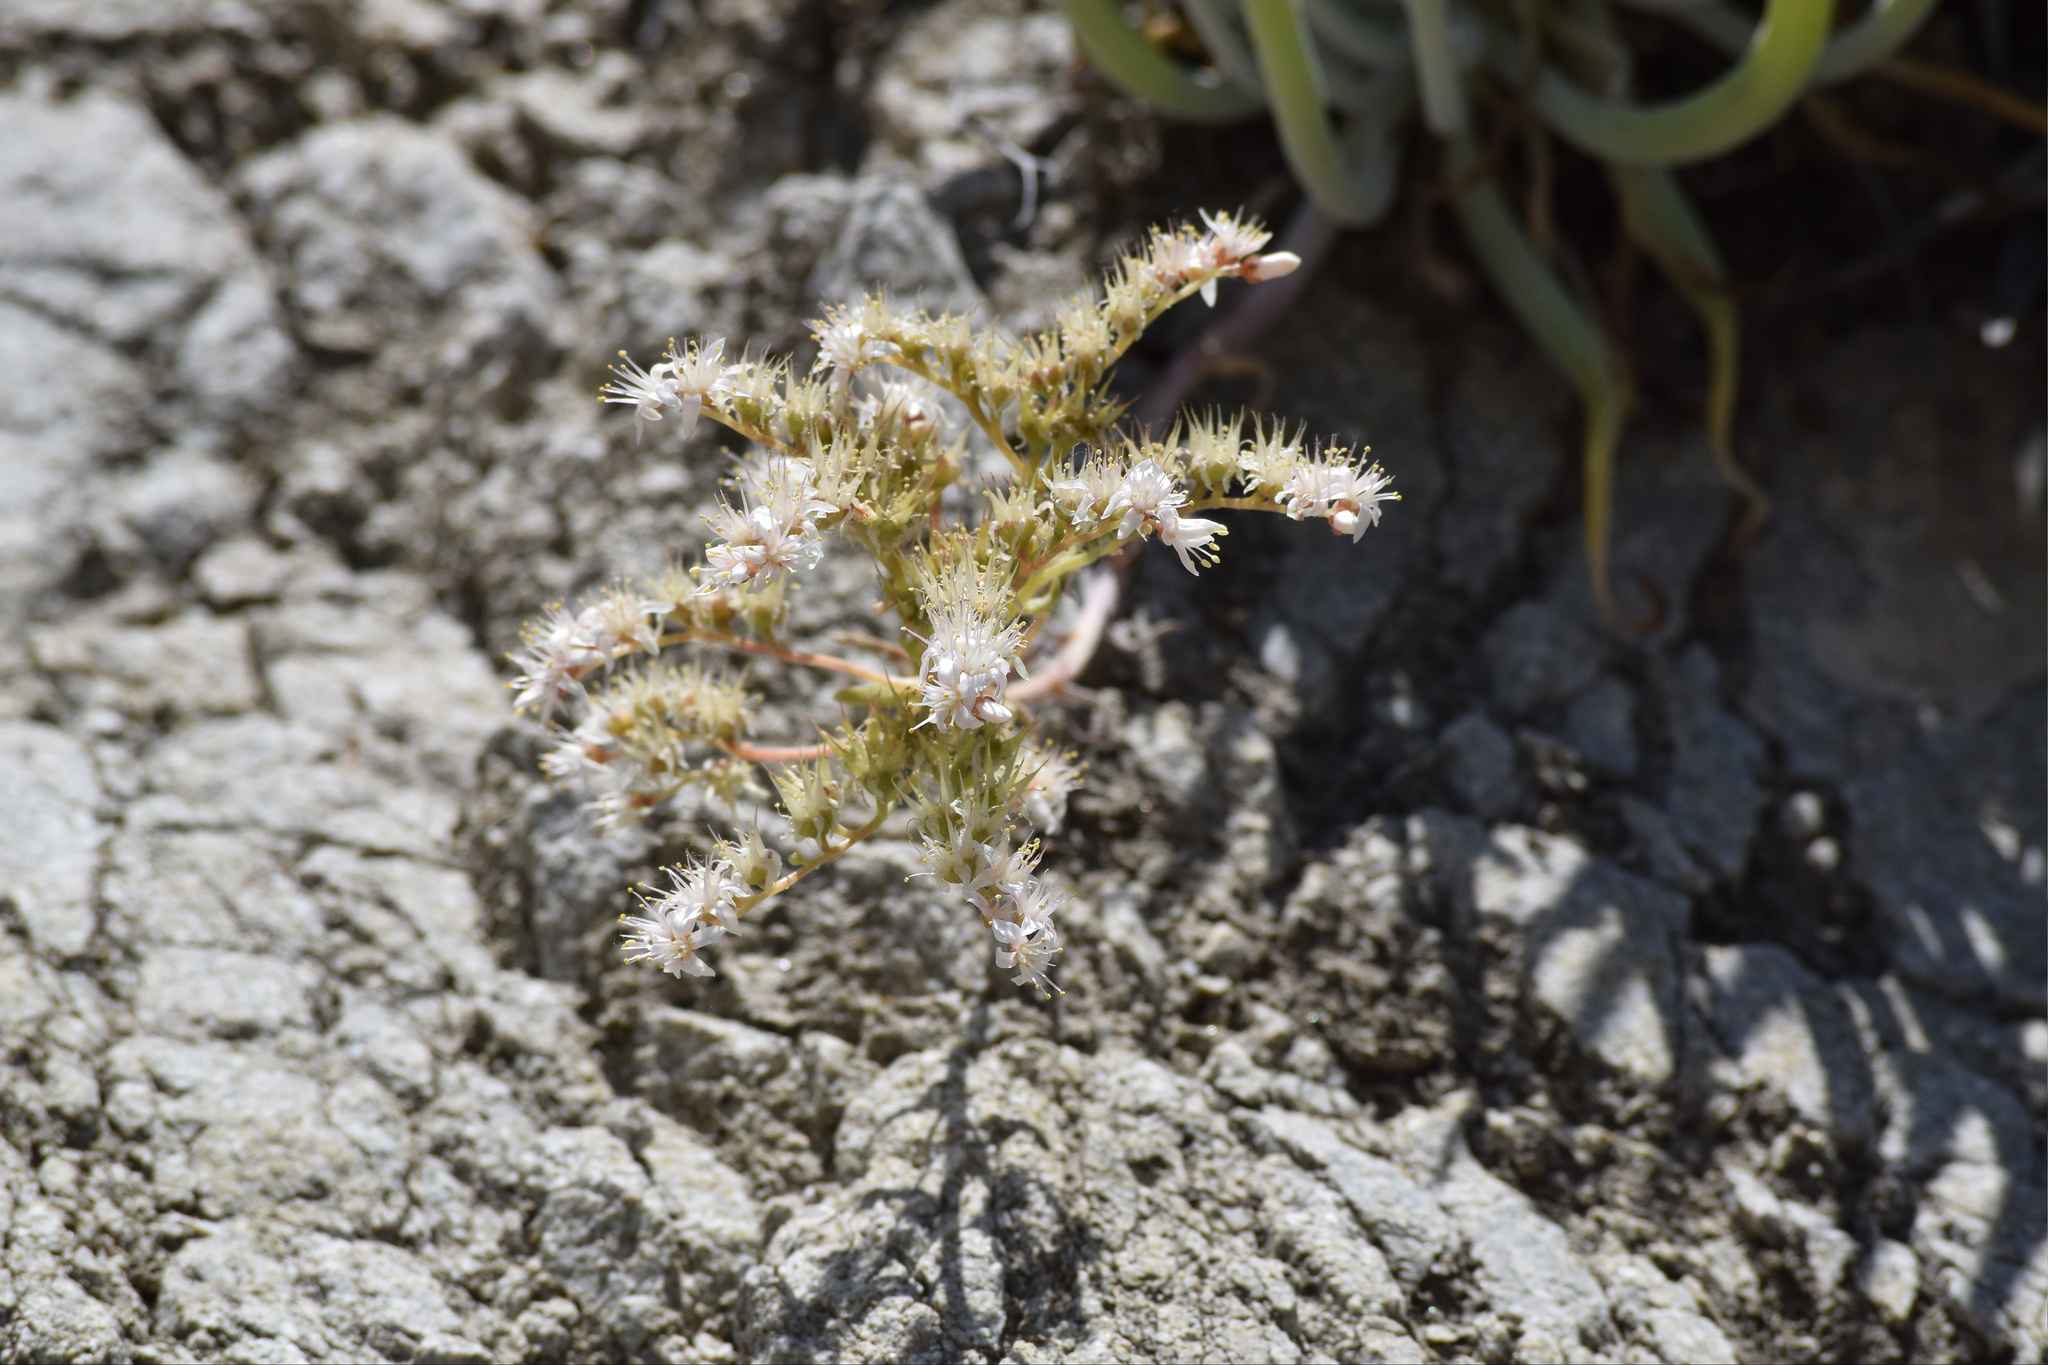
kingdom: Plantae
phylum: Tracheophyta
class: Magnoliopsida
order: Saxifragales
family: Crassulaceae
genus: Dudleya
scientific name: Dudleya densiflora
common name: San gabriel mountains dudleya
